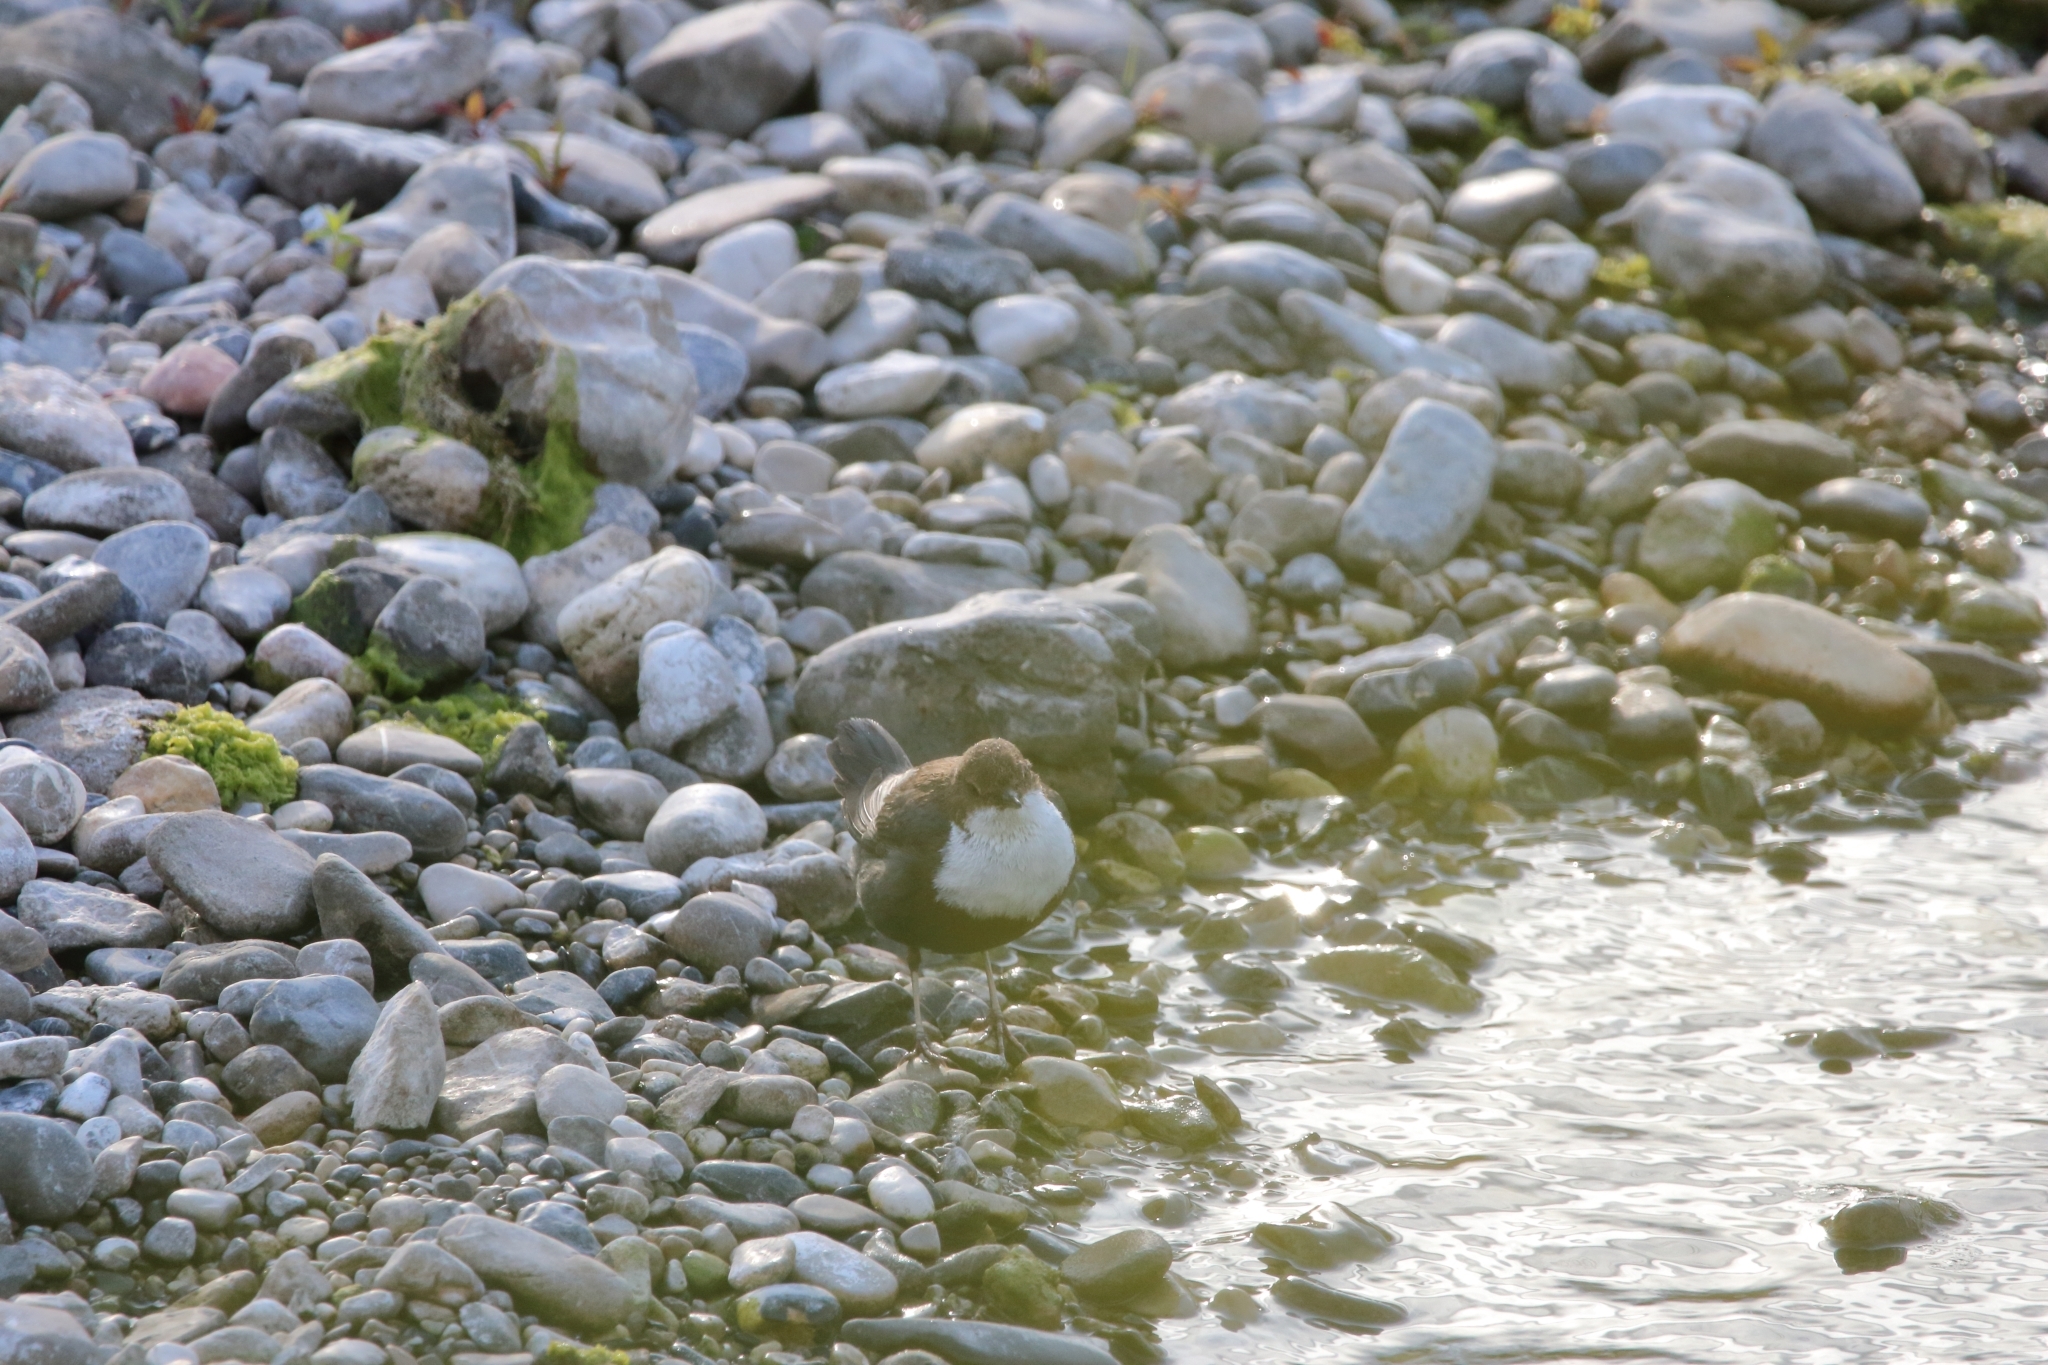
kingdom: Animalia
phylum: Chordata
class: Aves
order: Passeriformes
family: Cinclidae
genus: Cinclus
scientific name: Cinclus cinclus
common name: White-throated dipper
